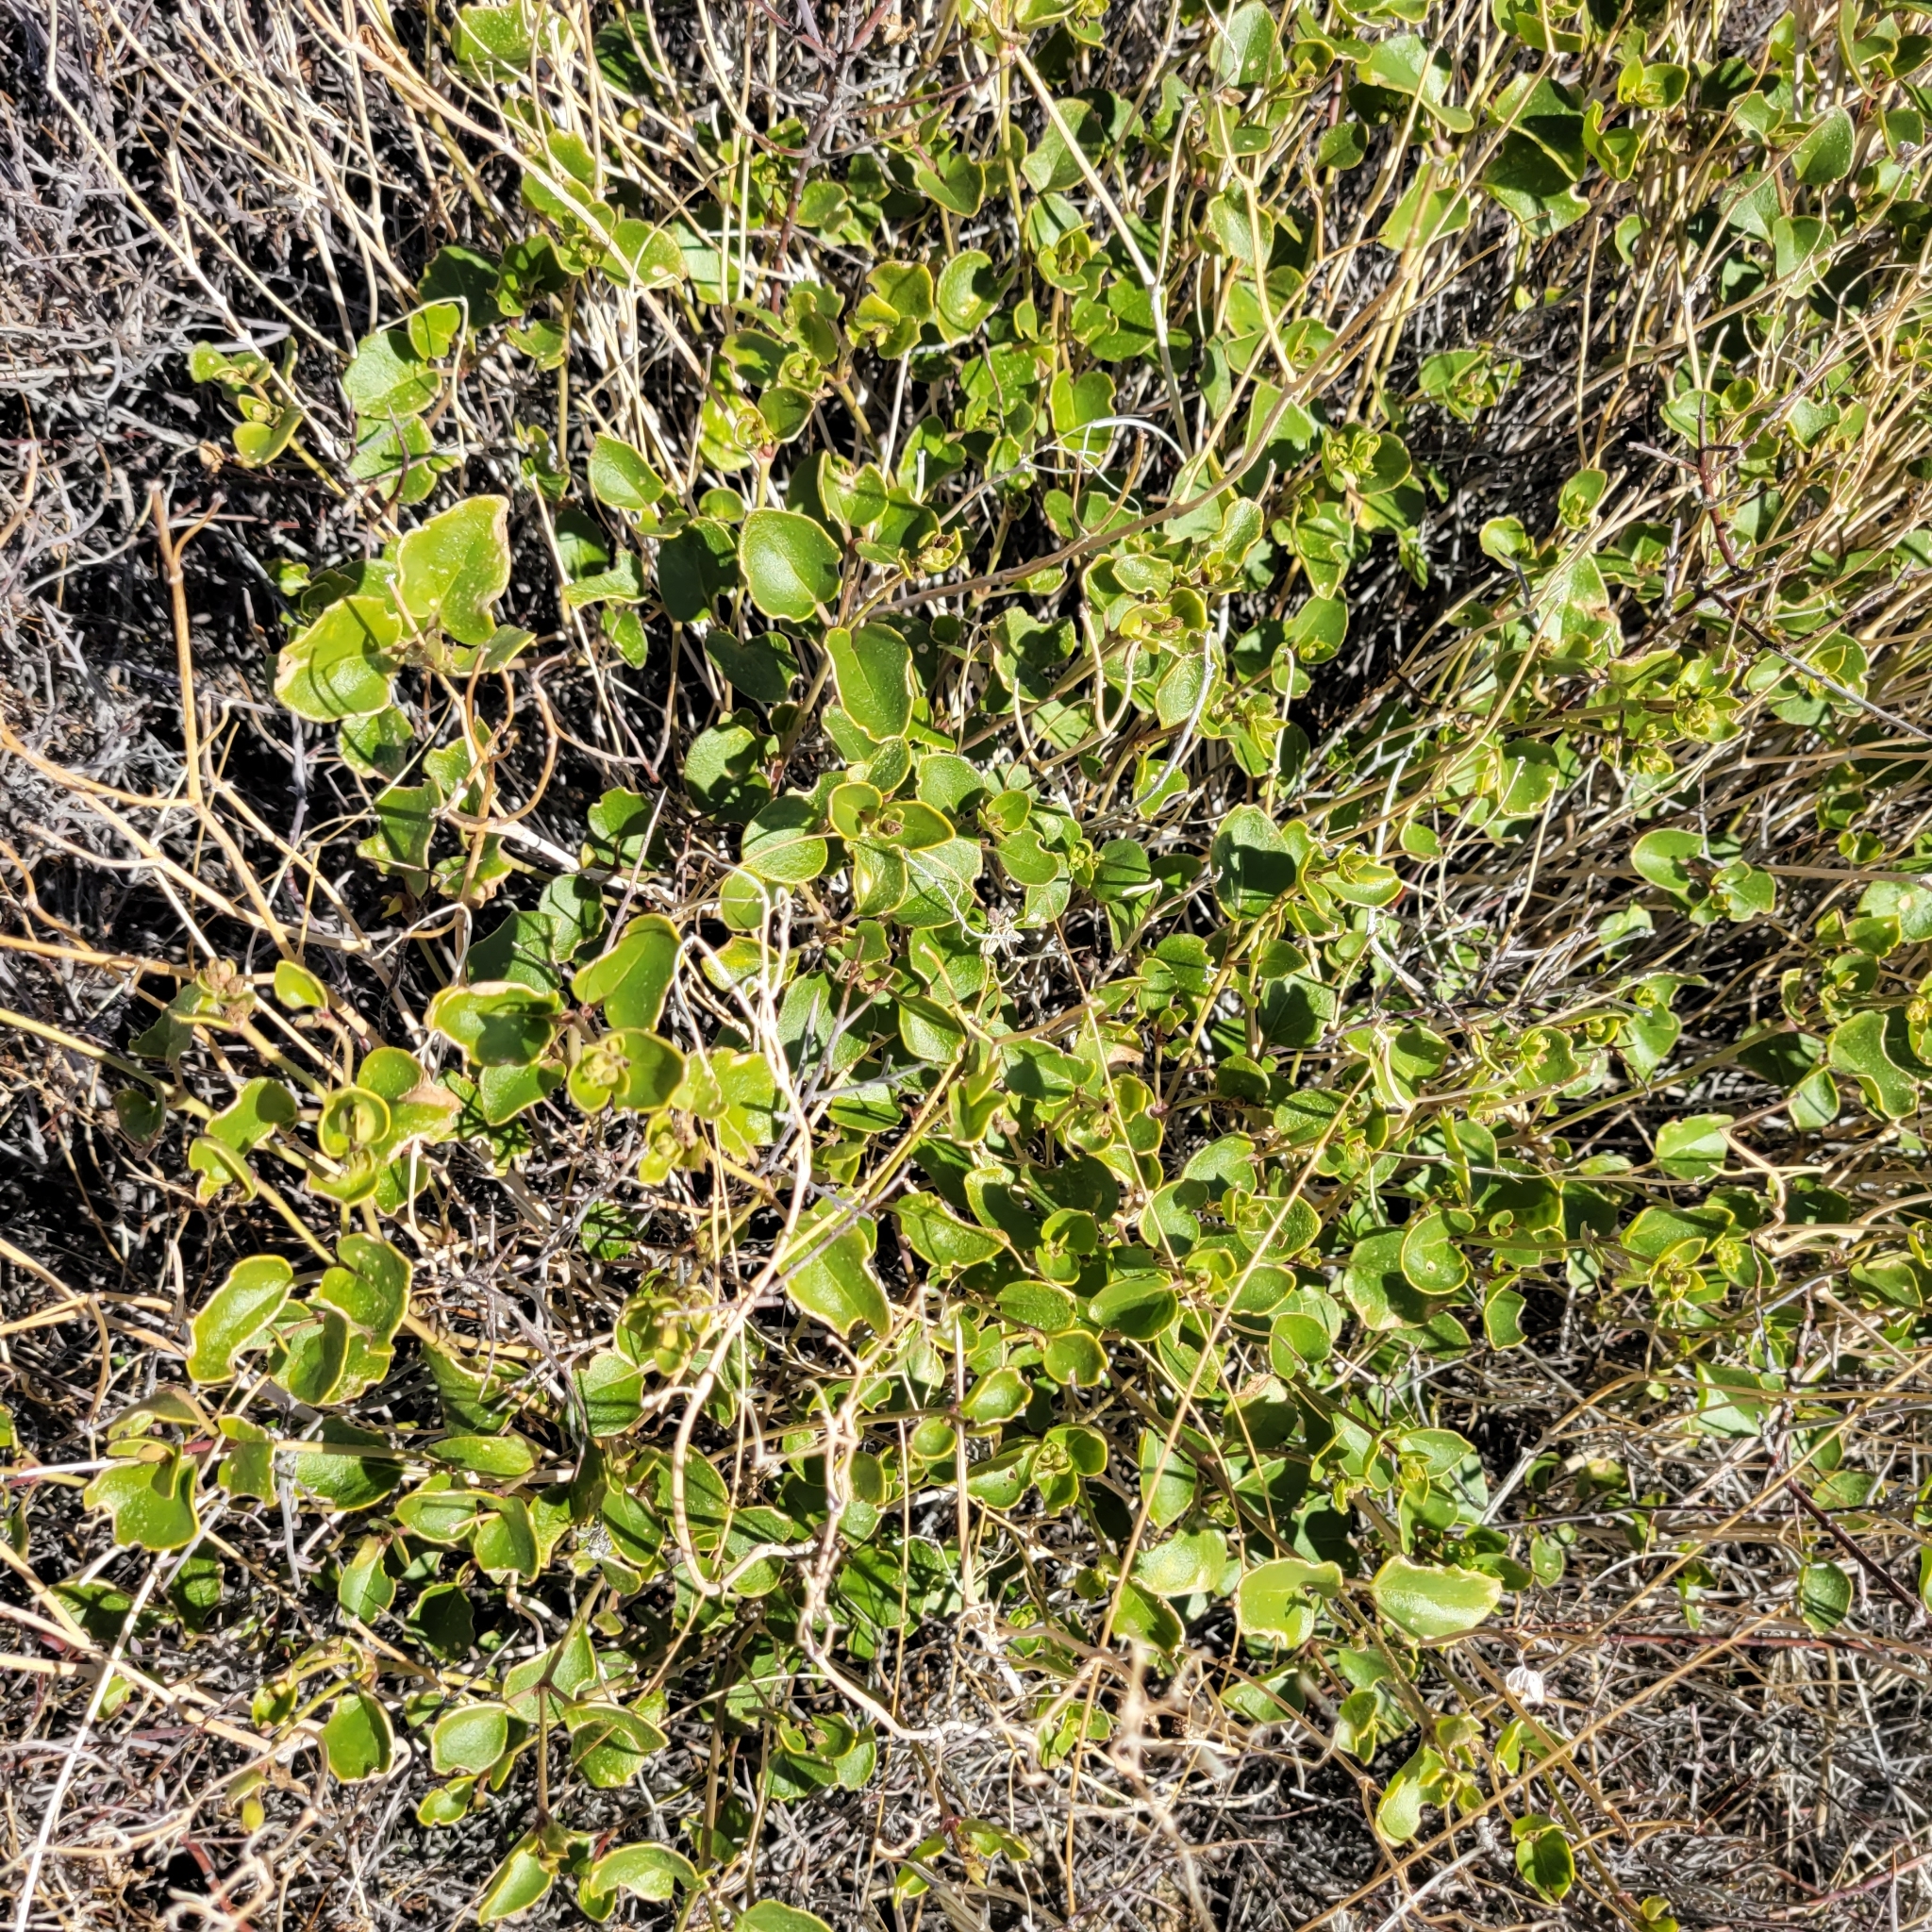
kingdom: Plantae
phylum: Tracheophyta
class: Magnoliopsida
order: Caryophyllales
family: Nyctaginaceae
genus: Mirabilis
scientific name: Mirabilis laevis
